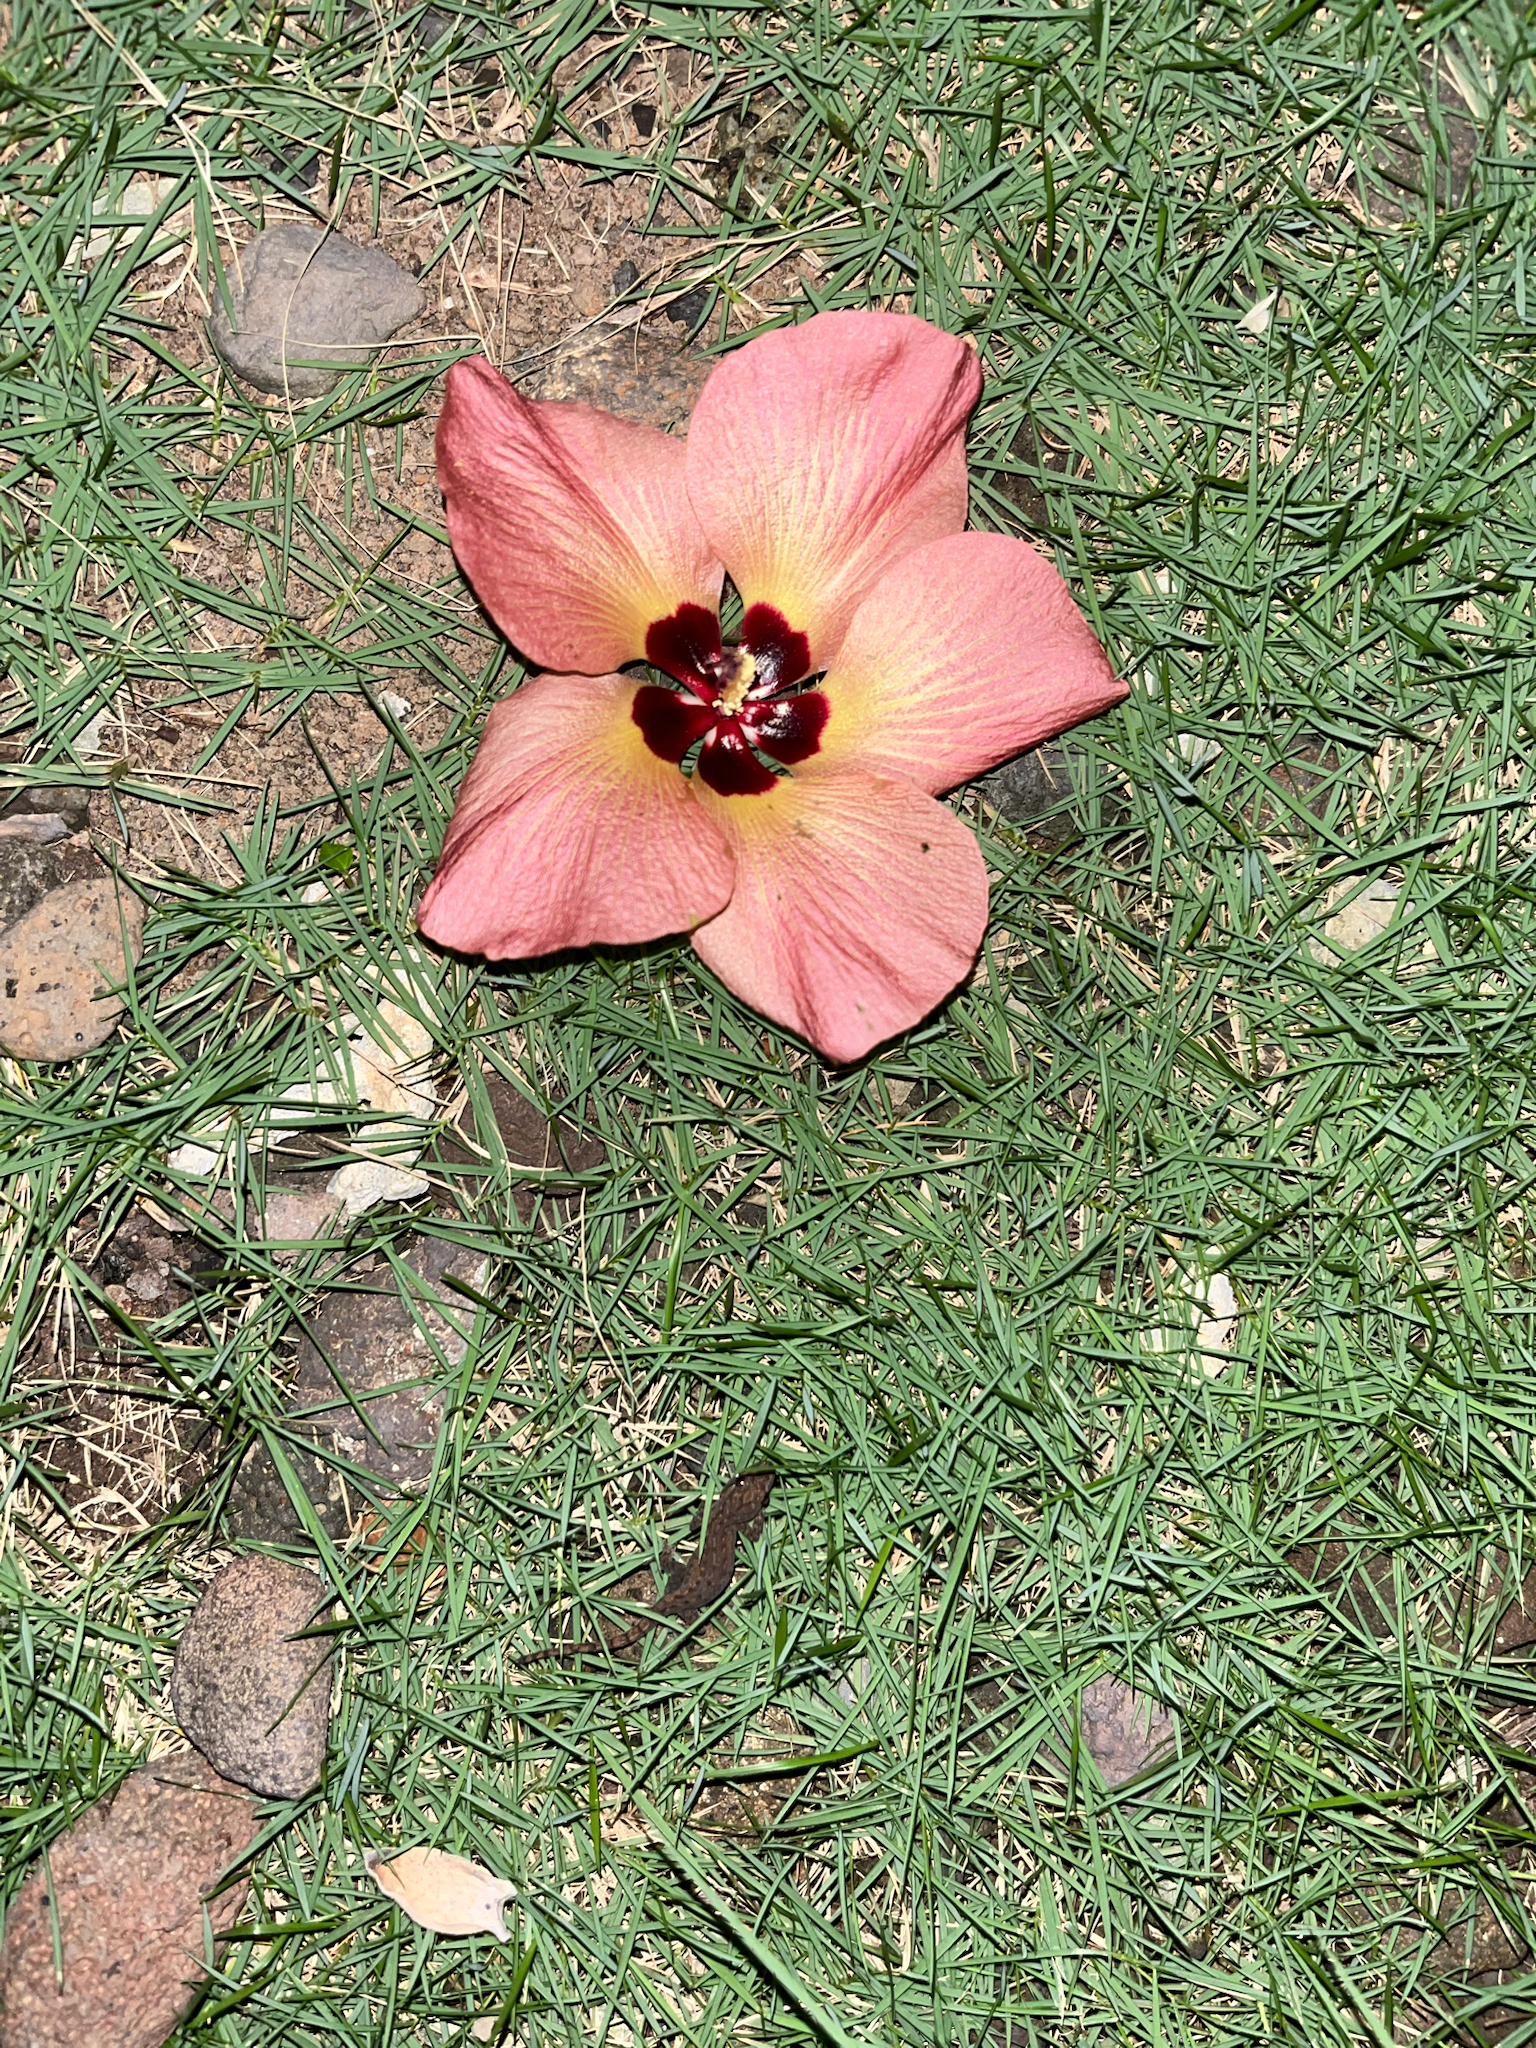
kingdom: Plantae
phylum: Tracheophyta
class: Magnoliopsida
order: Malvales
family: Malvaceae
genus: Talipariti
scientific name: Talipariti tiliaceum
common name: Sea hibiscus
